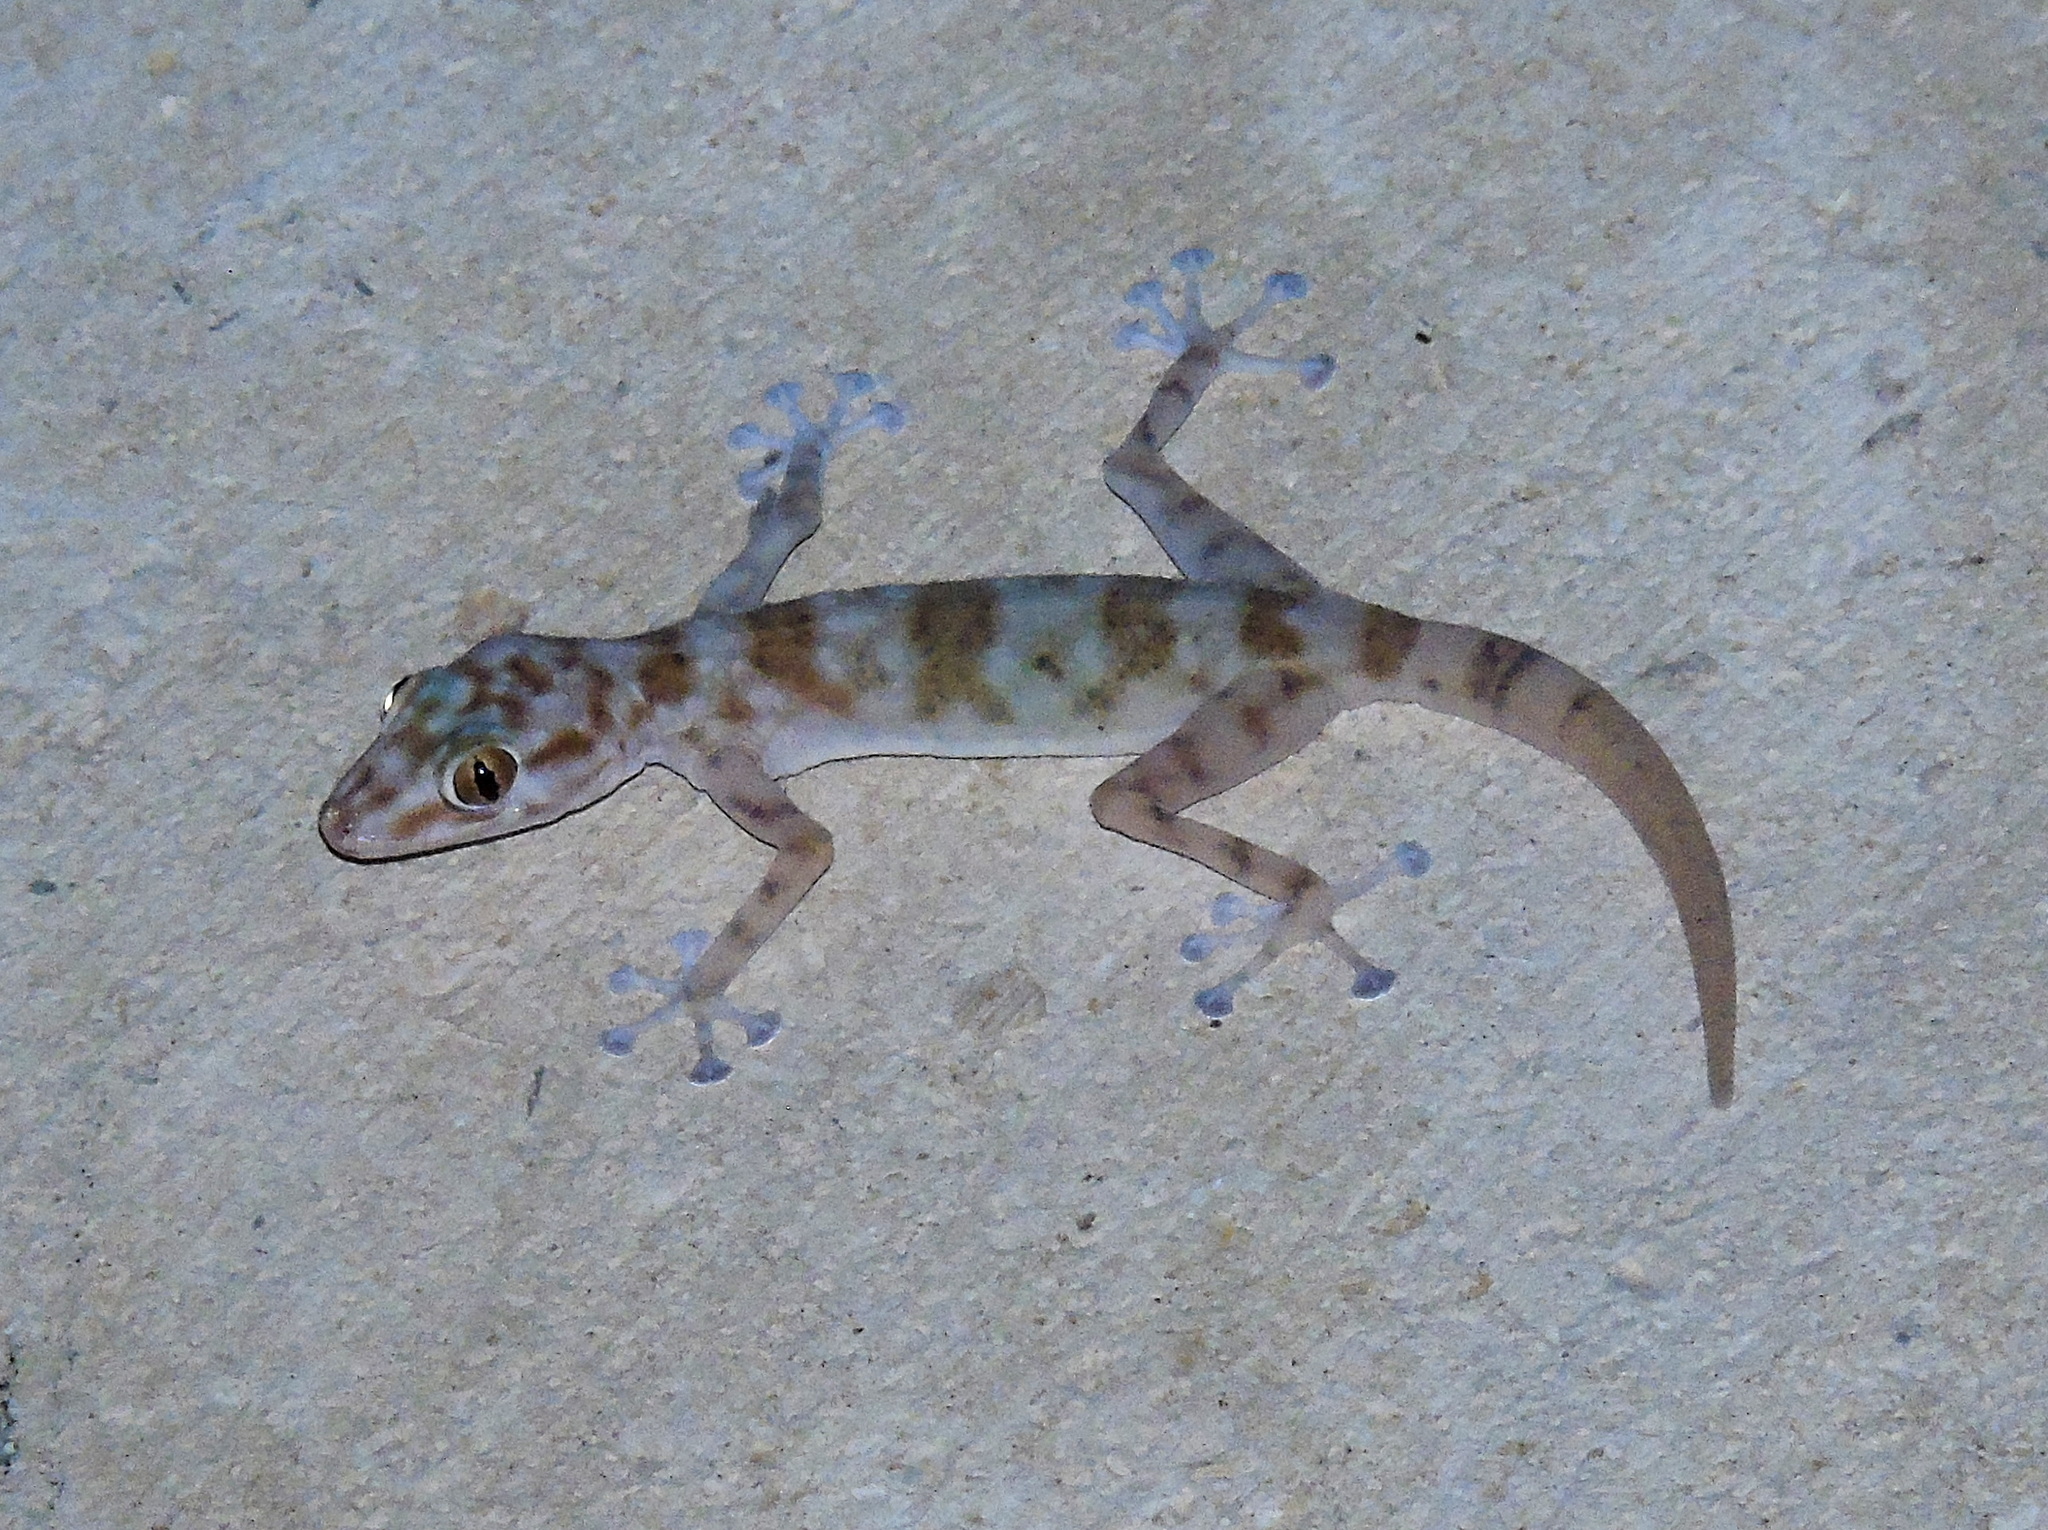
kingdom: Animalia
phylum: Chordata
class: Squamata
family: Phyllodactylidae
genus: Ptyodactylus
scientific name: Ptyodactylus hasselquistii
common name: Hasselquist’s fan-footed gecko
